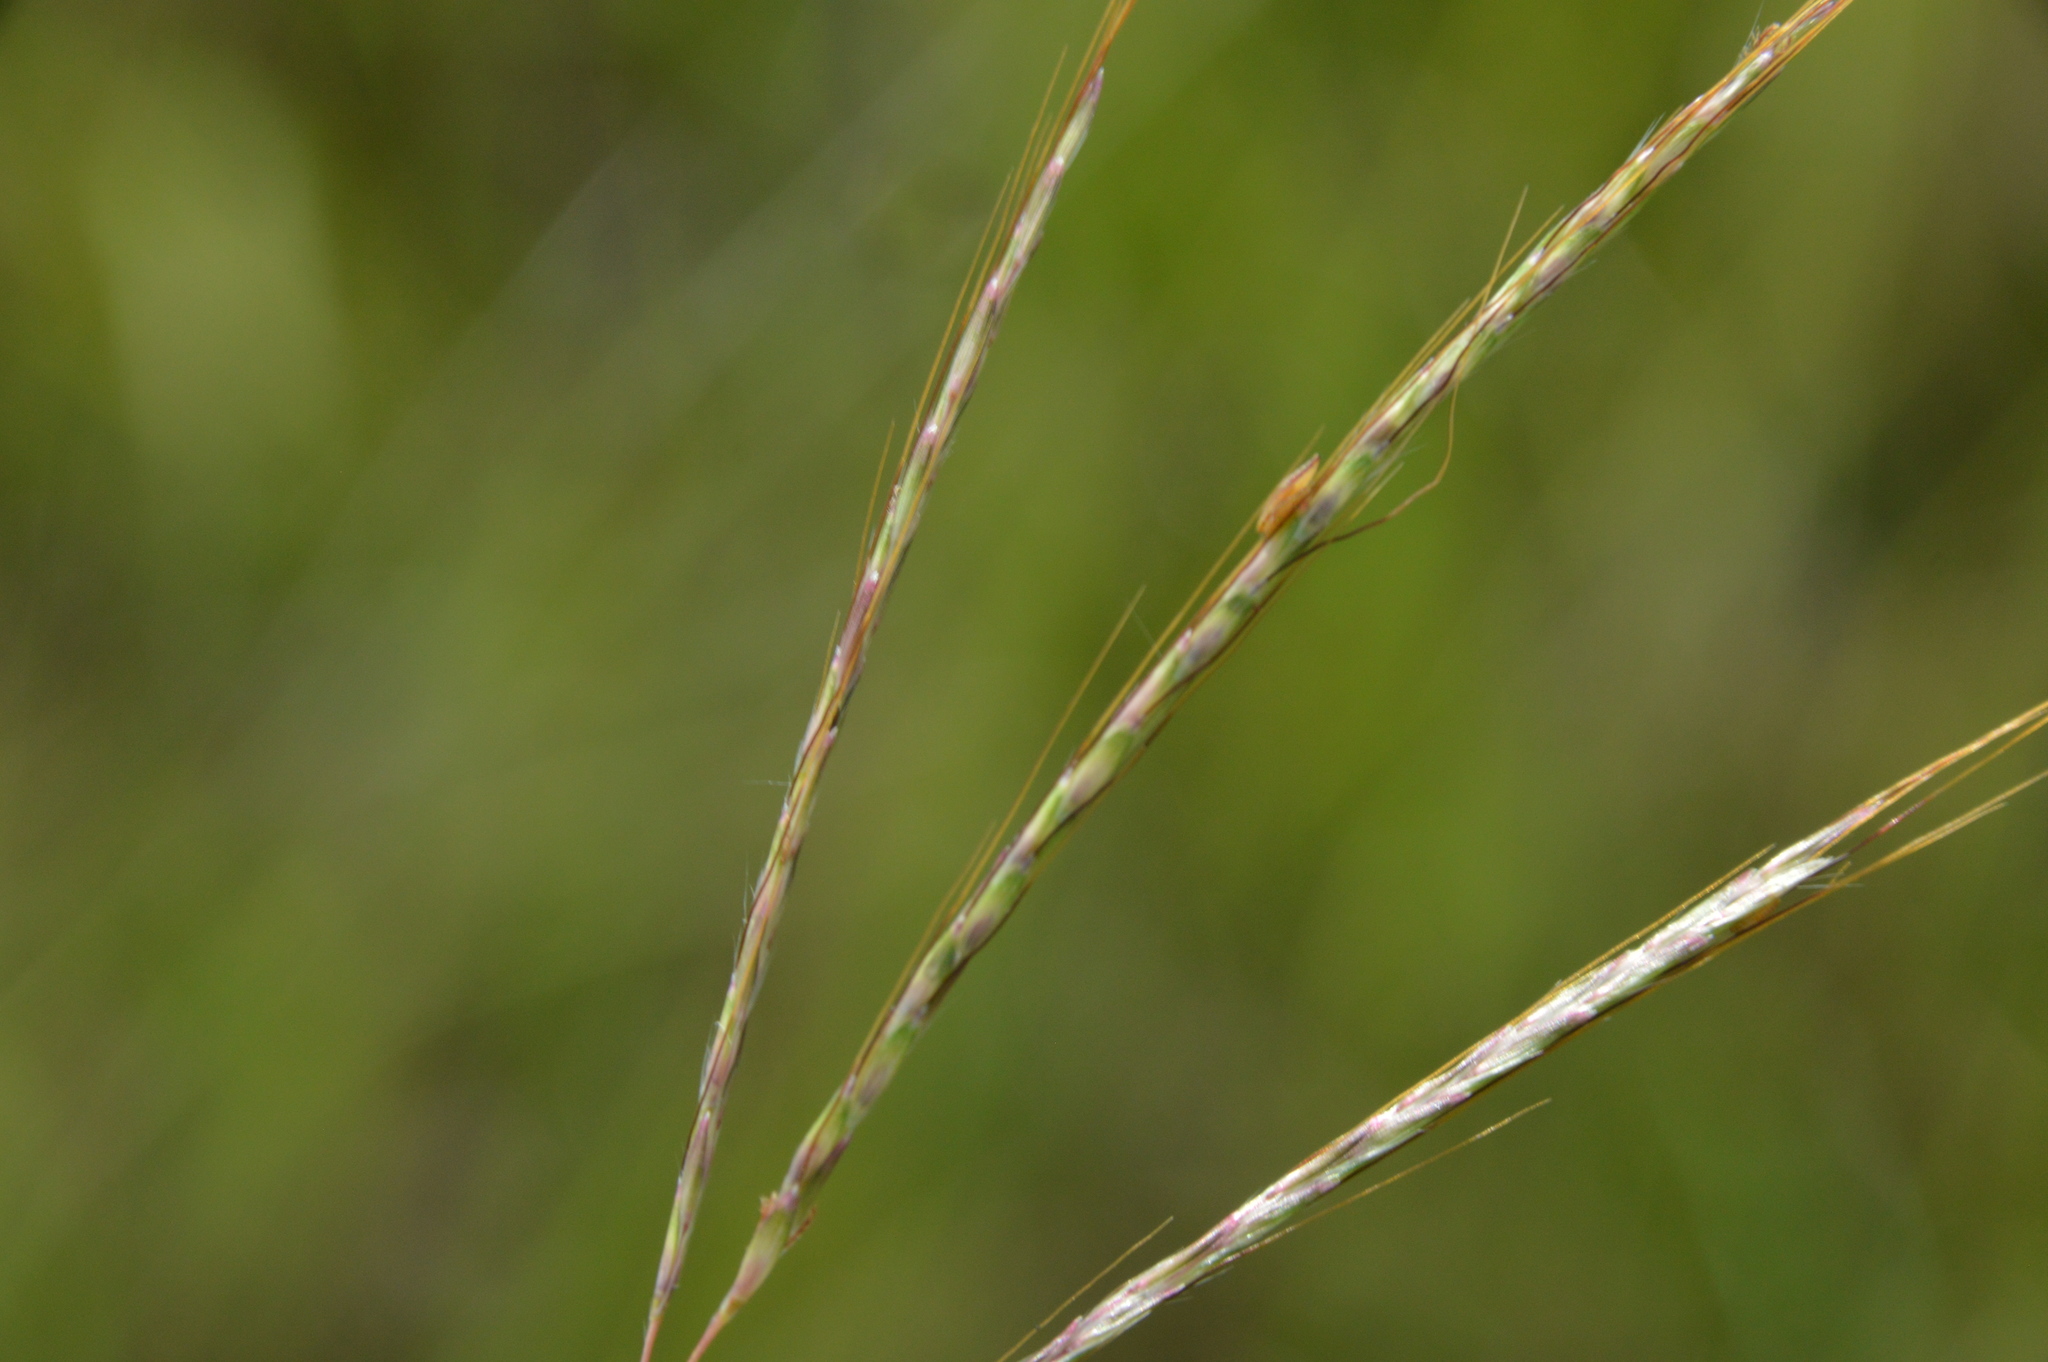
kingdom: Plantae
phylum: Tracheophyta
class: Liliopsida
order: Poales
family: Poaceae
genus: Bothriochloa
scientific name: Bothriochloa ischaemum
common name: Yellow bluestem
